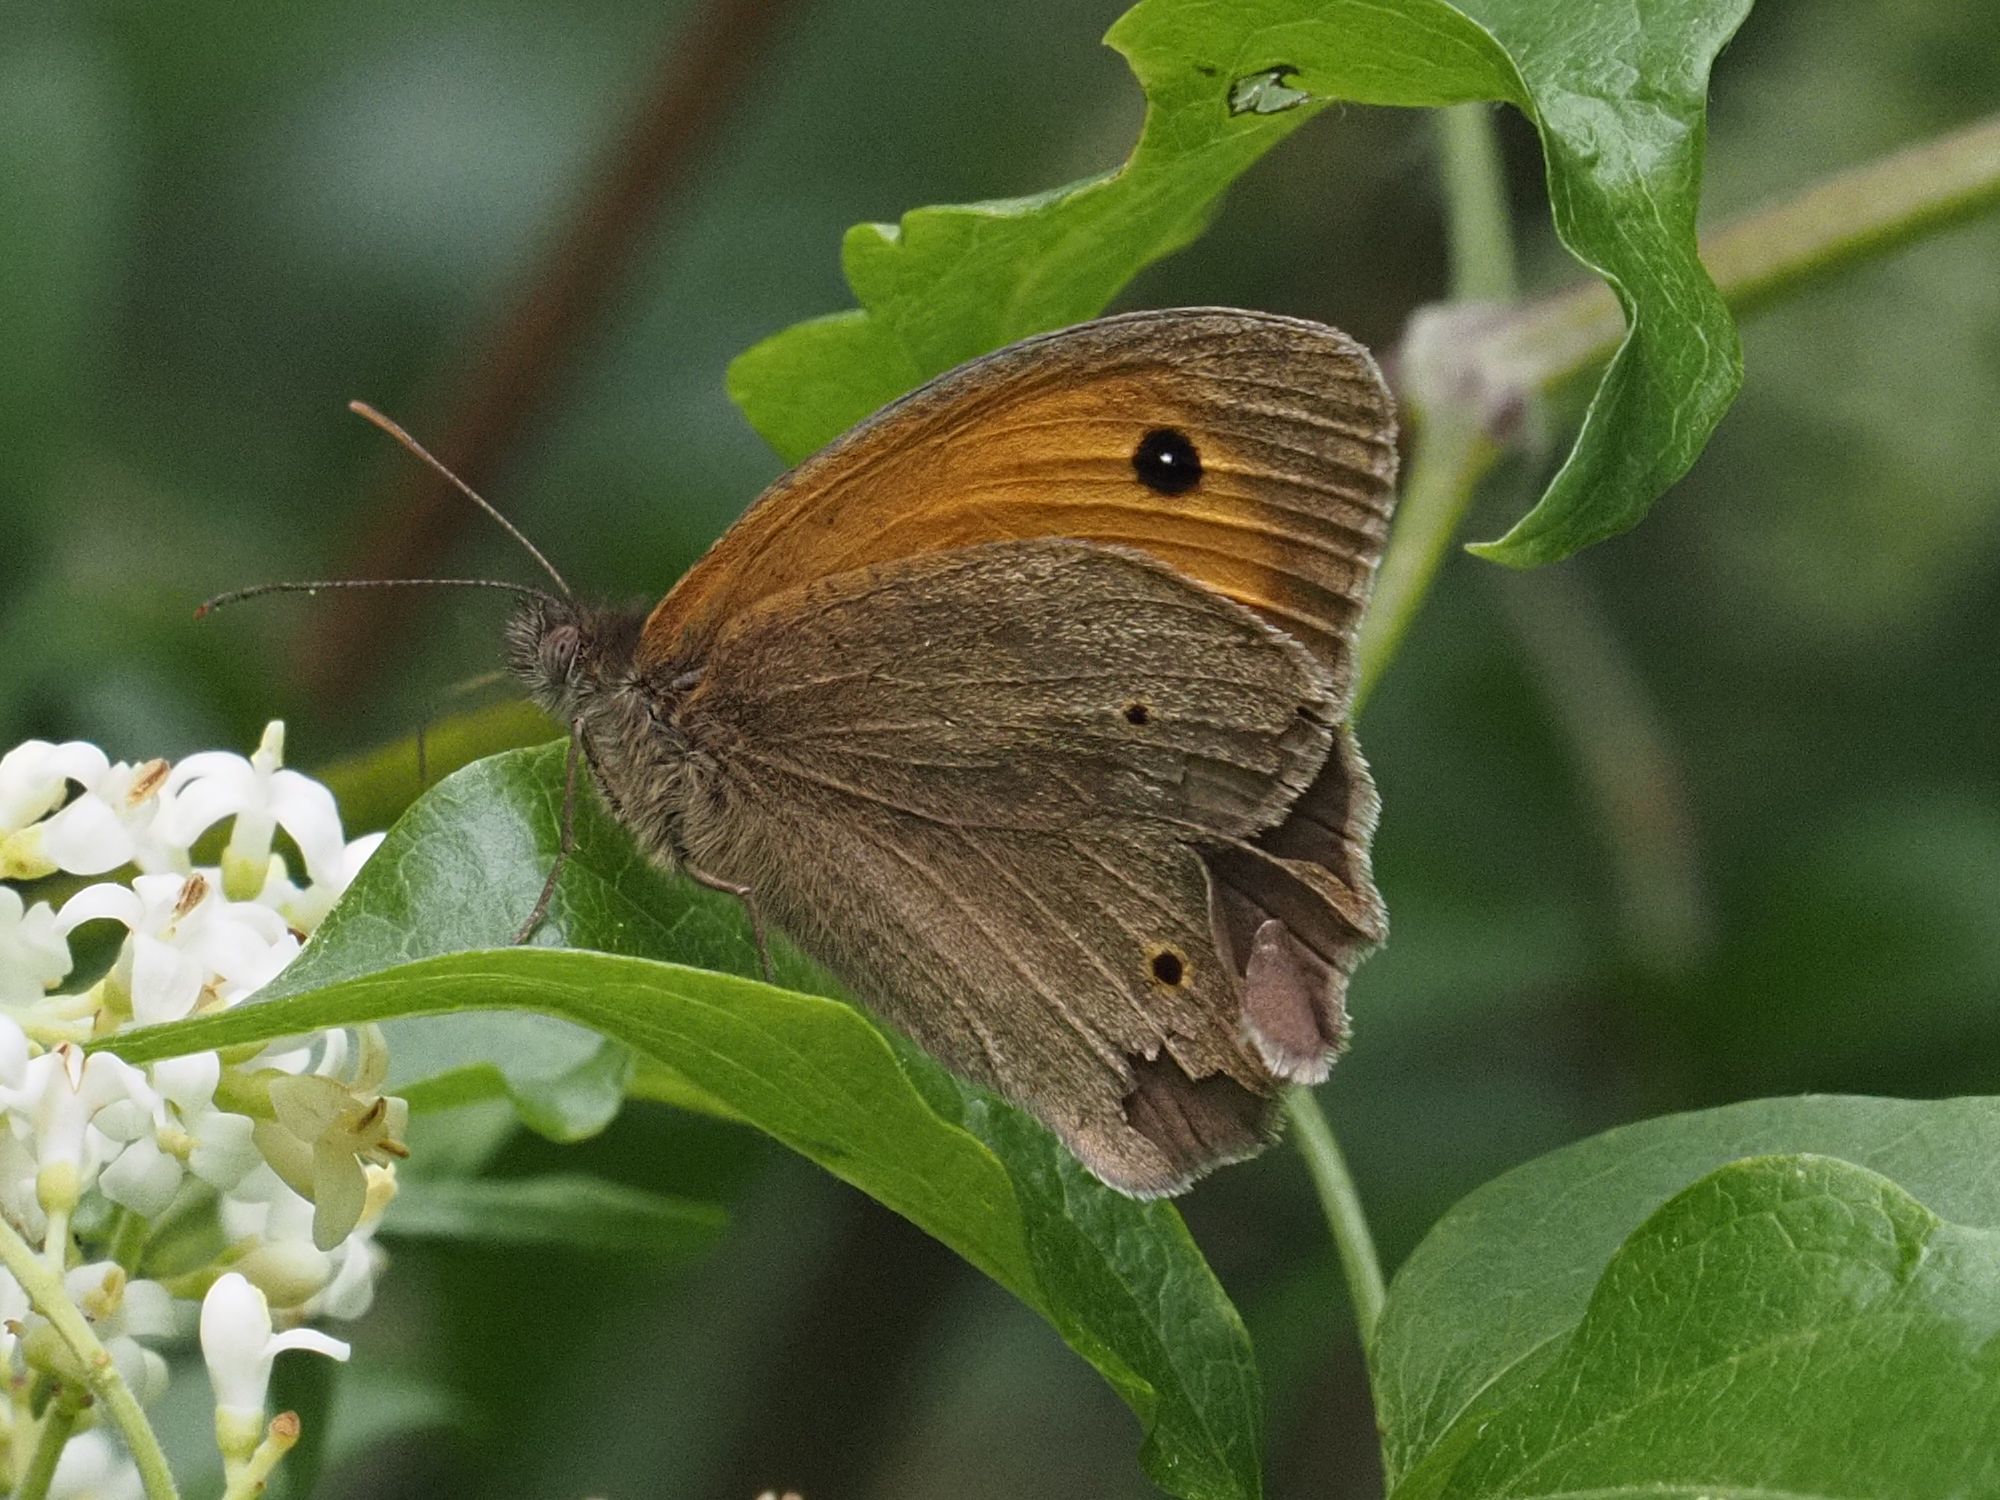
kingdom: Animalia
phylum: Arthropoda
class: Insecta
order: Lepidoptera
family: Nymphalidae
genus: Maniola
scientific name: Maniola jurtina
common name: Meadow brown
